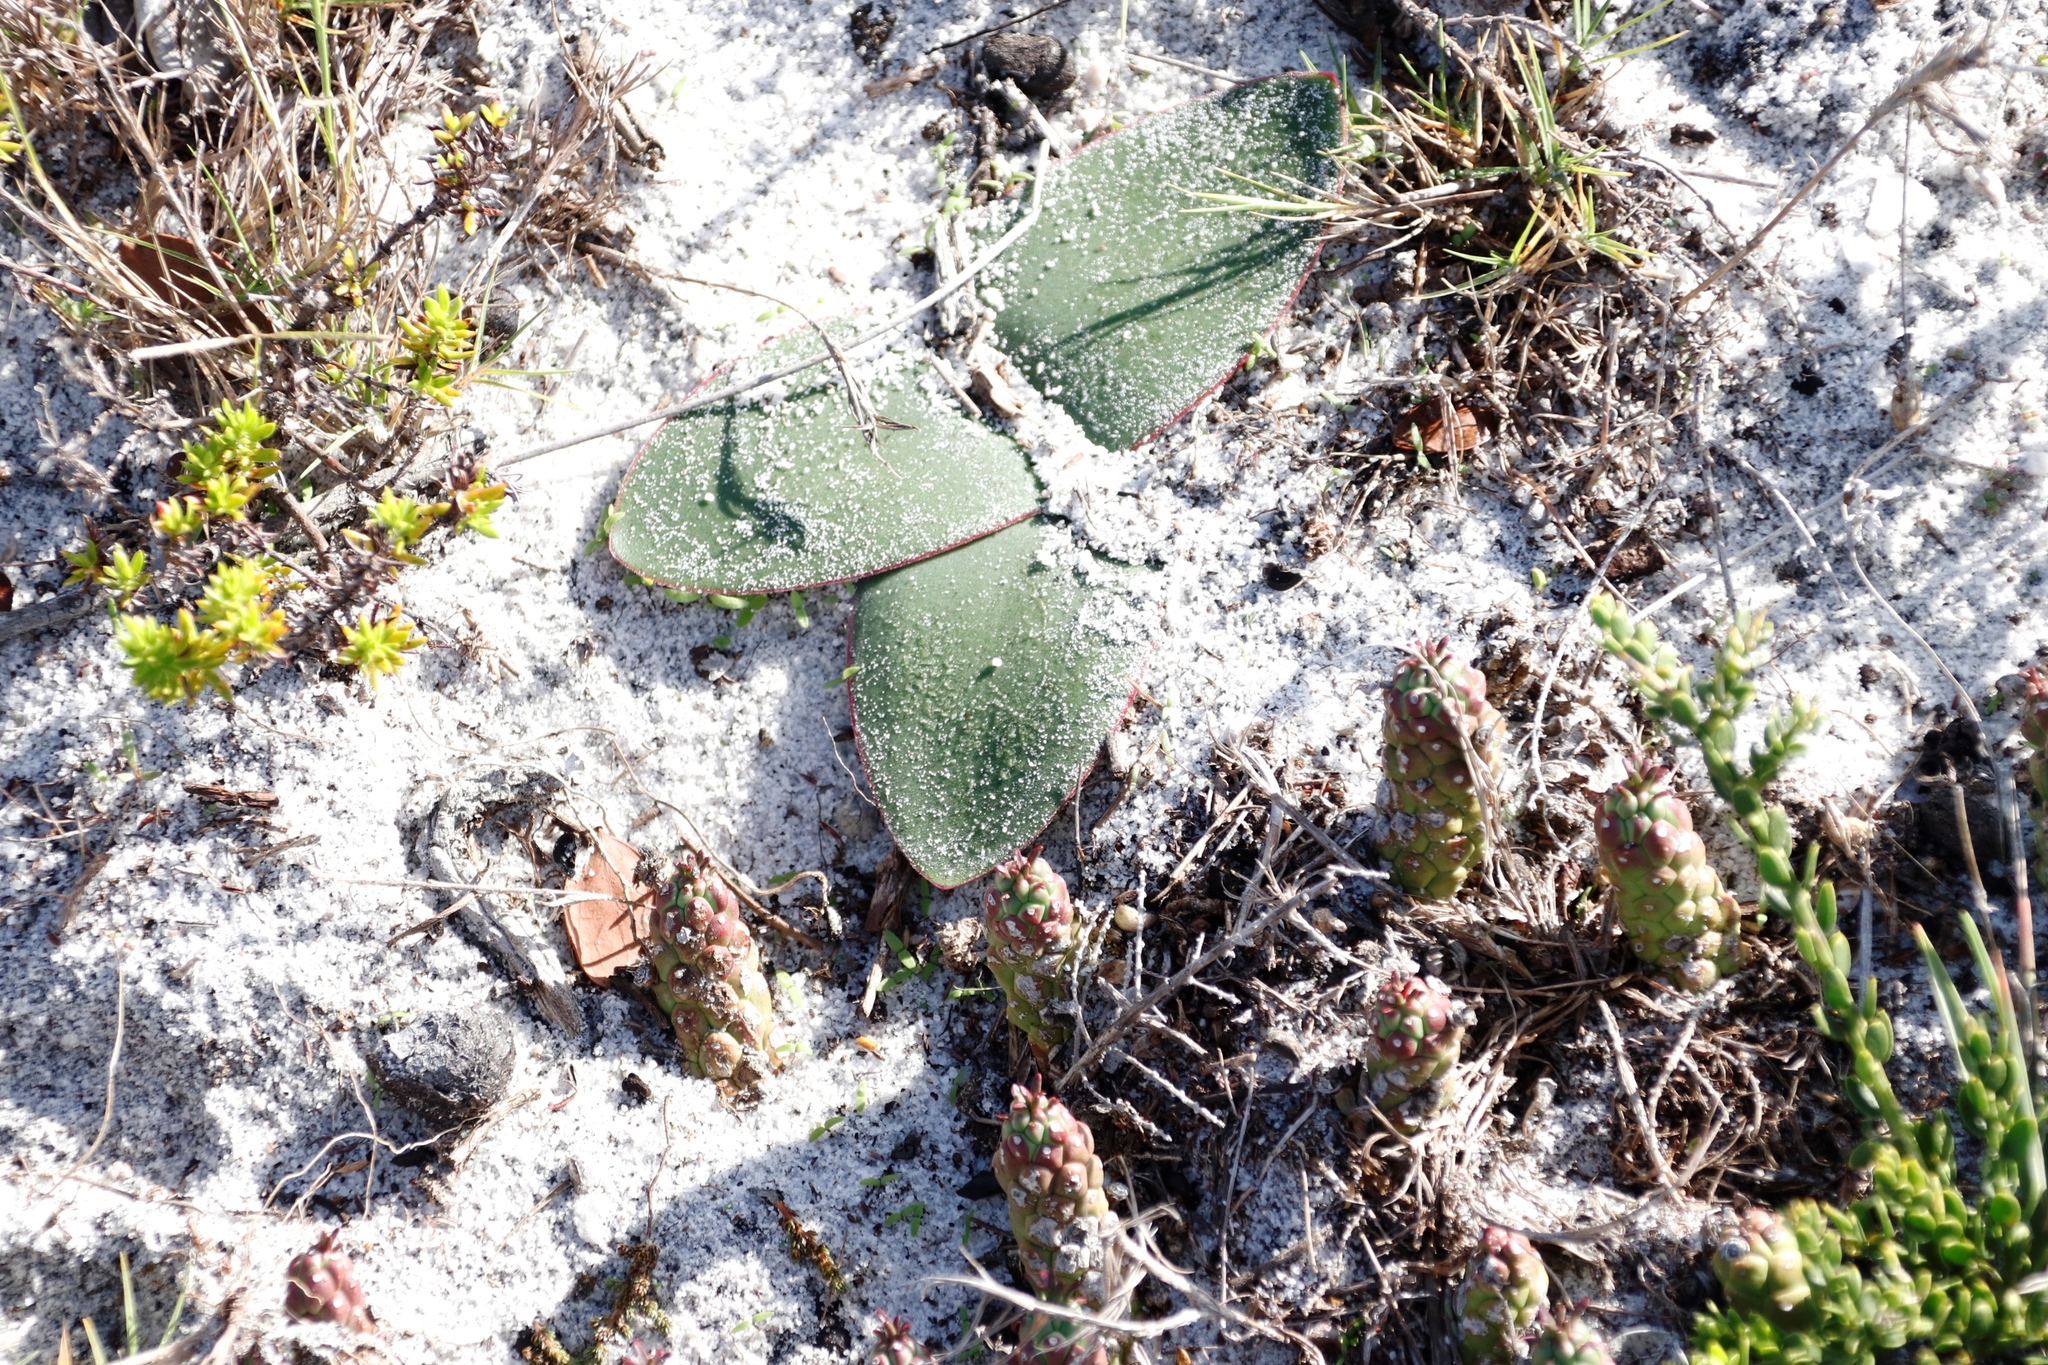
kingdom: Plantae
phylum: Tracheophyta
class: Liliopsida
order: Asparagales
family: Amaryllidaceae
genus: Brunsvigia
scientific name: Brunsvigia orientalis
